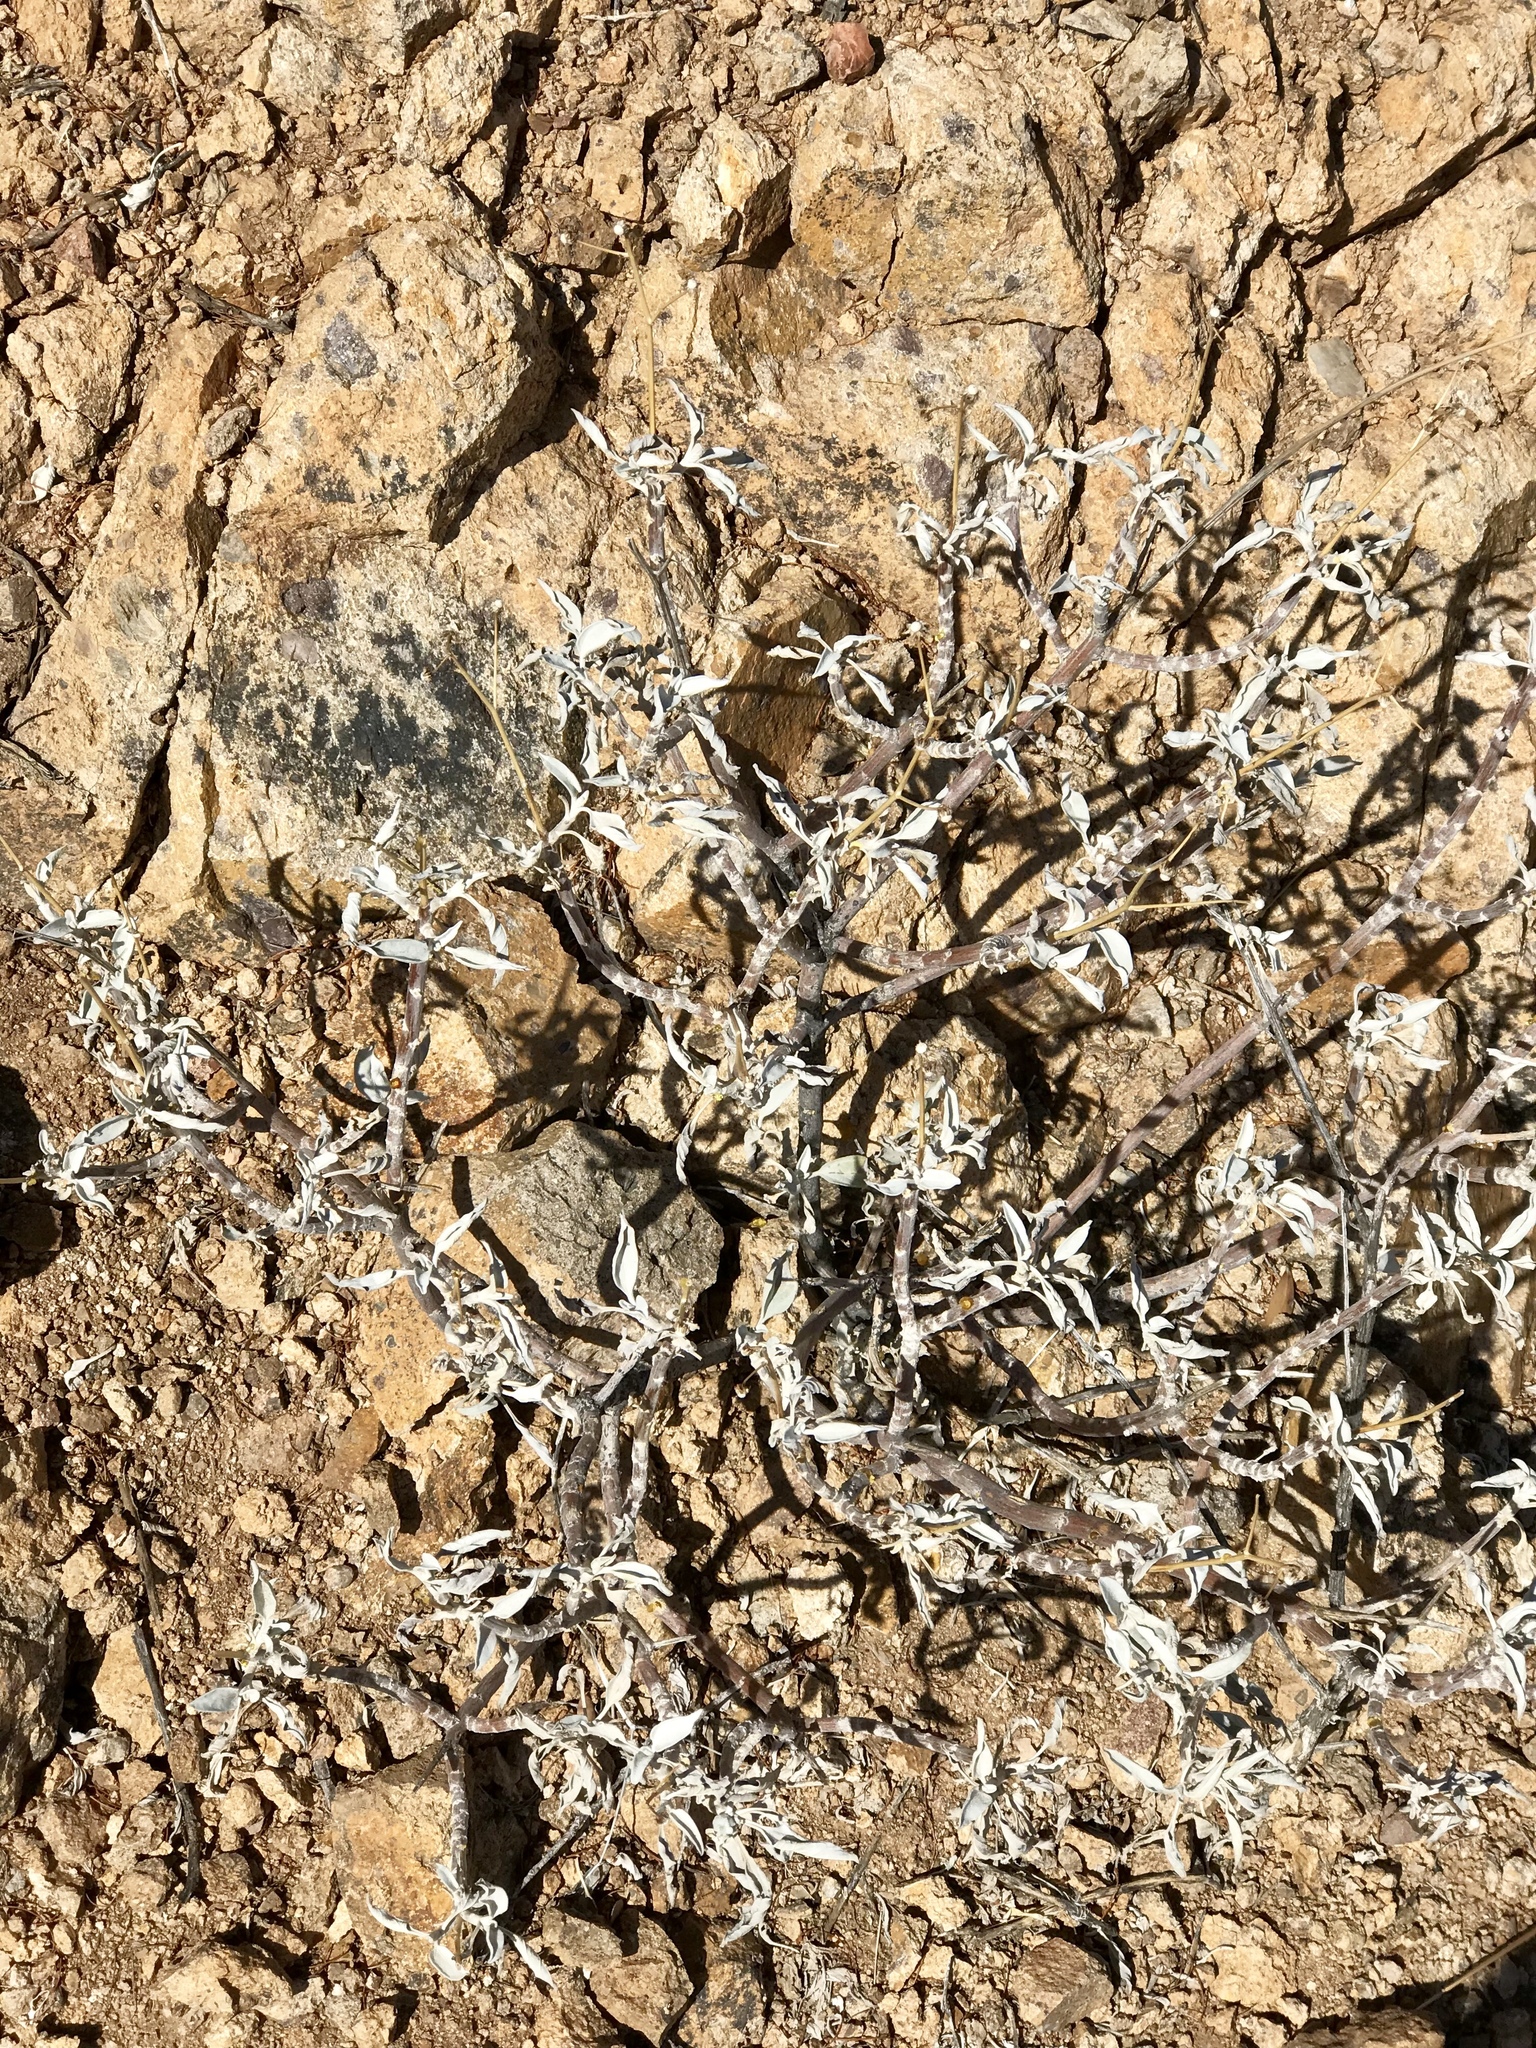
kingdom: Plantae
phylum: Tracheophyta
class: Magnoliopsida
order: Asterales
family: Asteraceae
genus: Encelia
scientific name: Encelia farinosa
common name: Brittlebush
